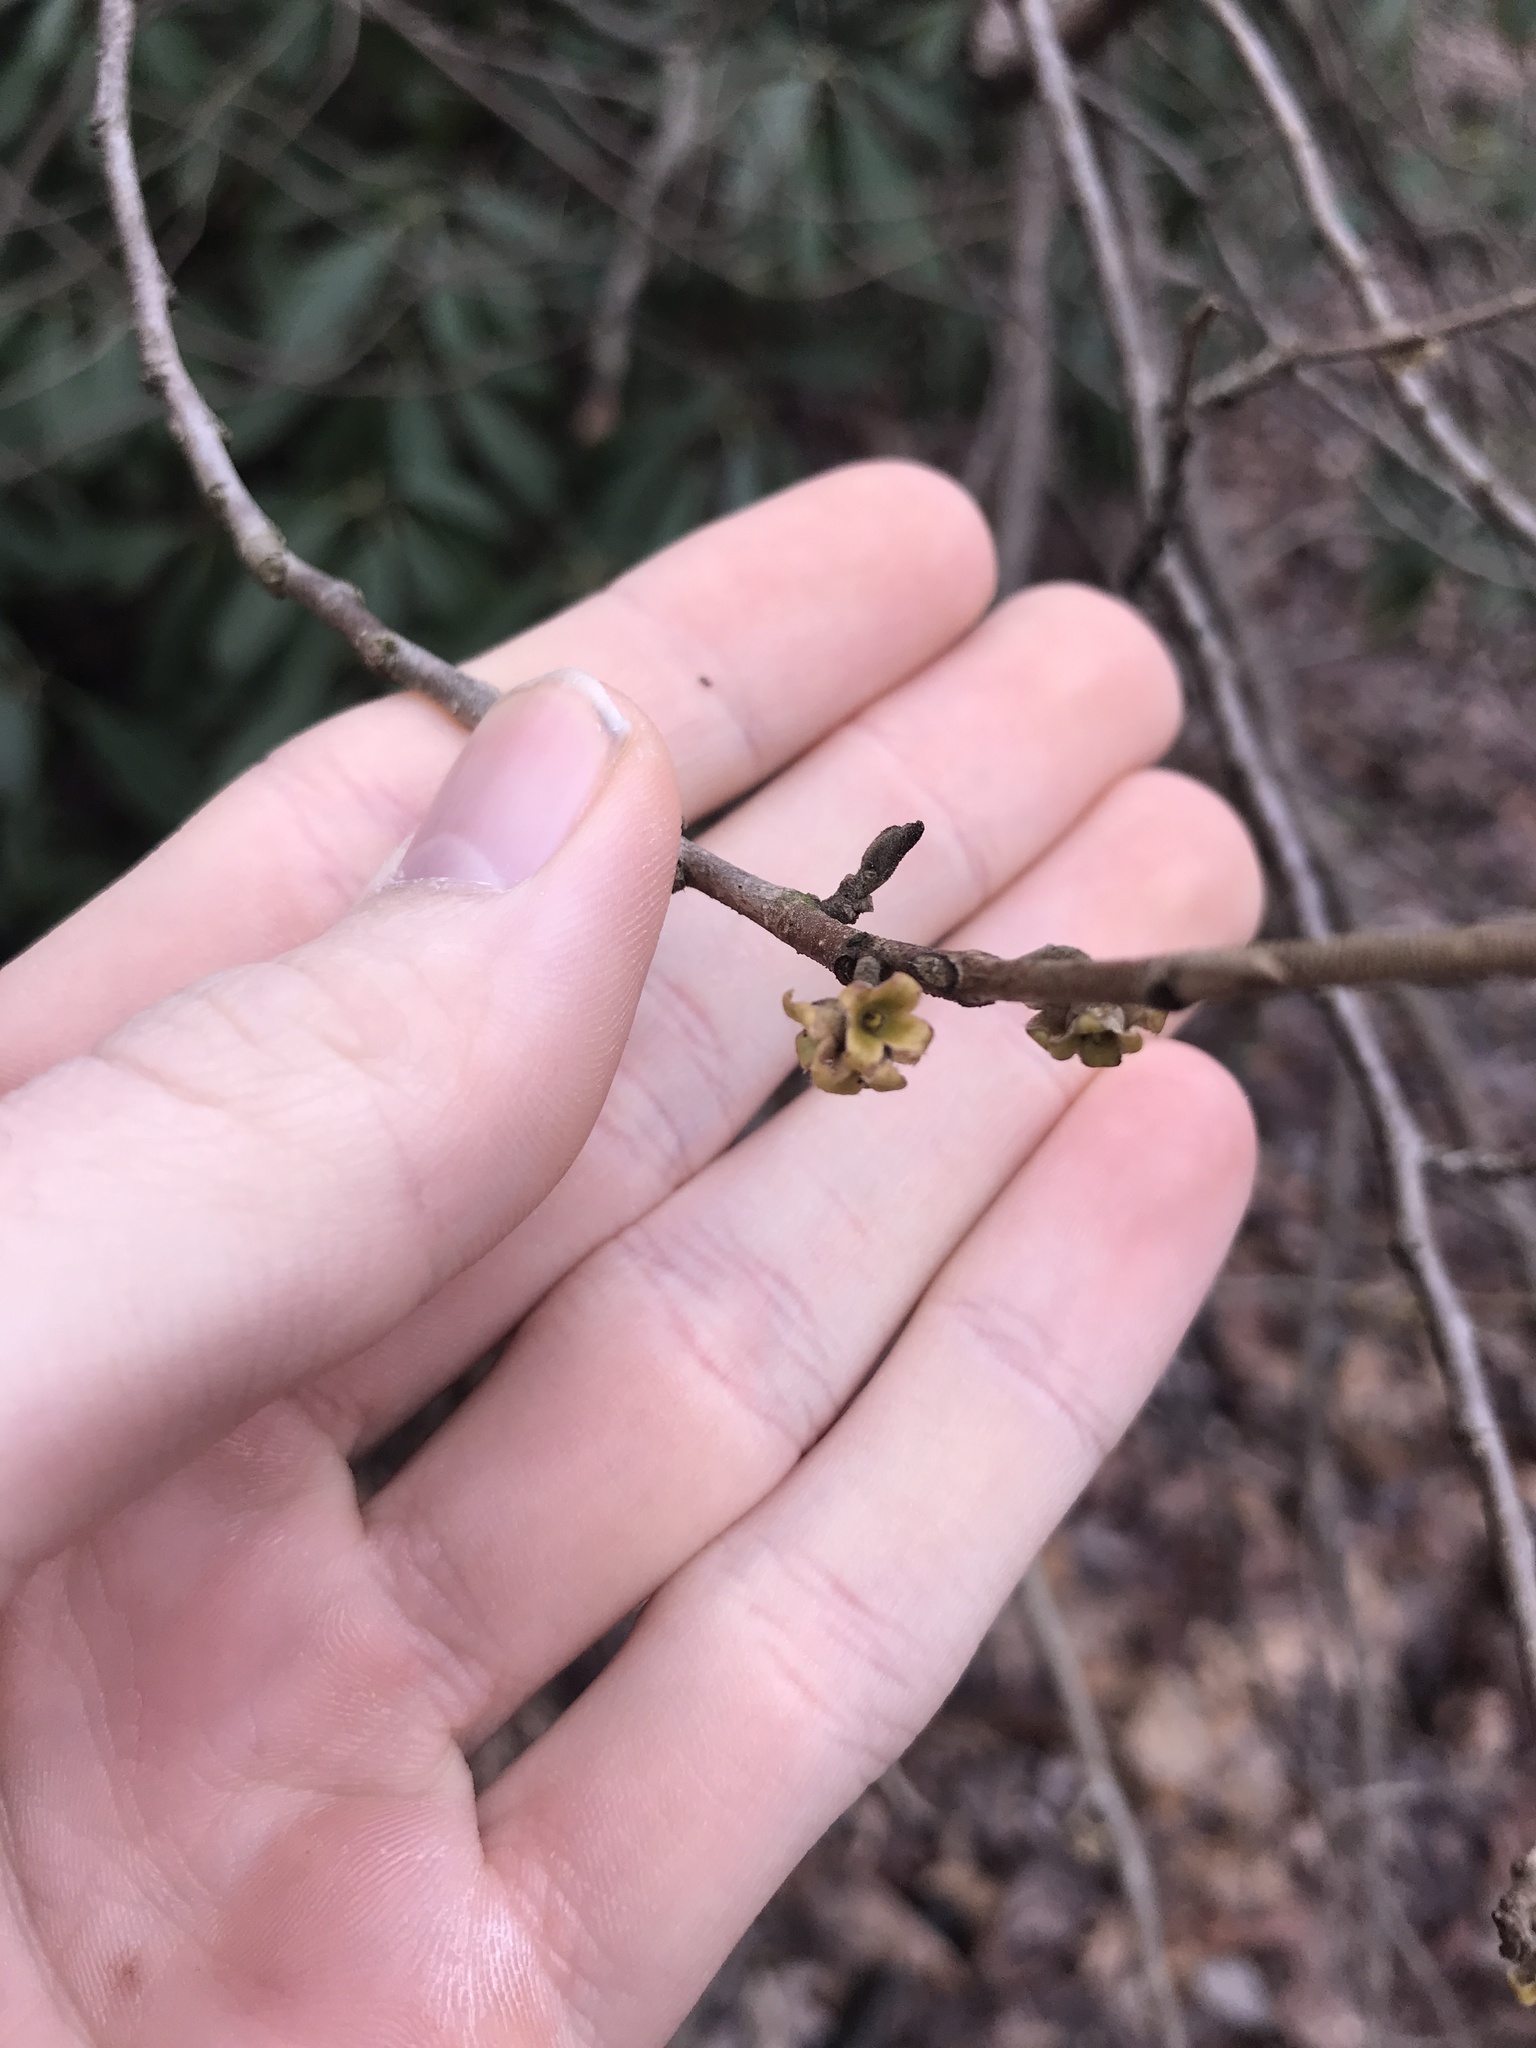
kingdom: Plantae
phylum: Tracheophyta
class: Magnoliopsida
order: Saxifragales
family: Hamamelidaceae
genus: Hamamelis
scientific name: Hamamelis virginiana
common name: Witch-hazel
